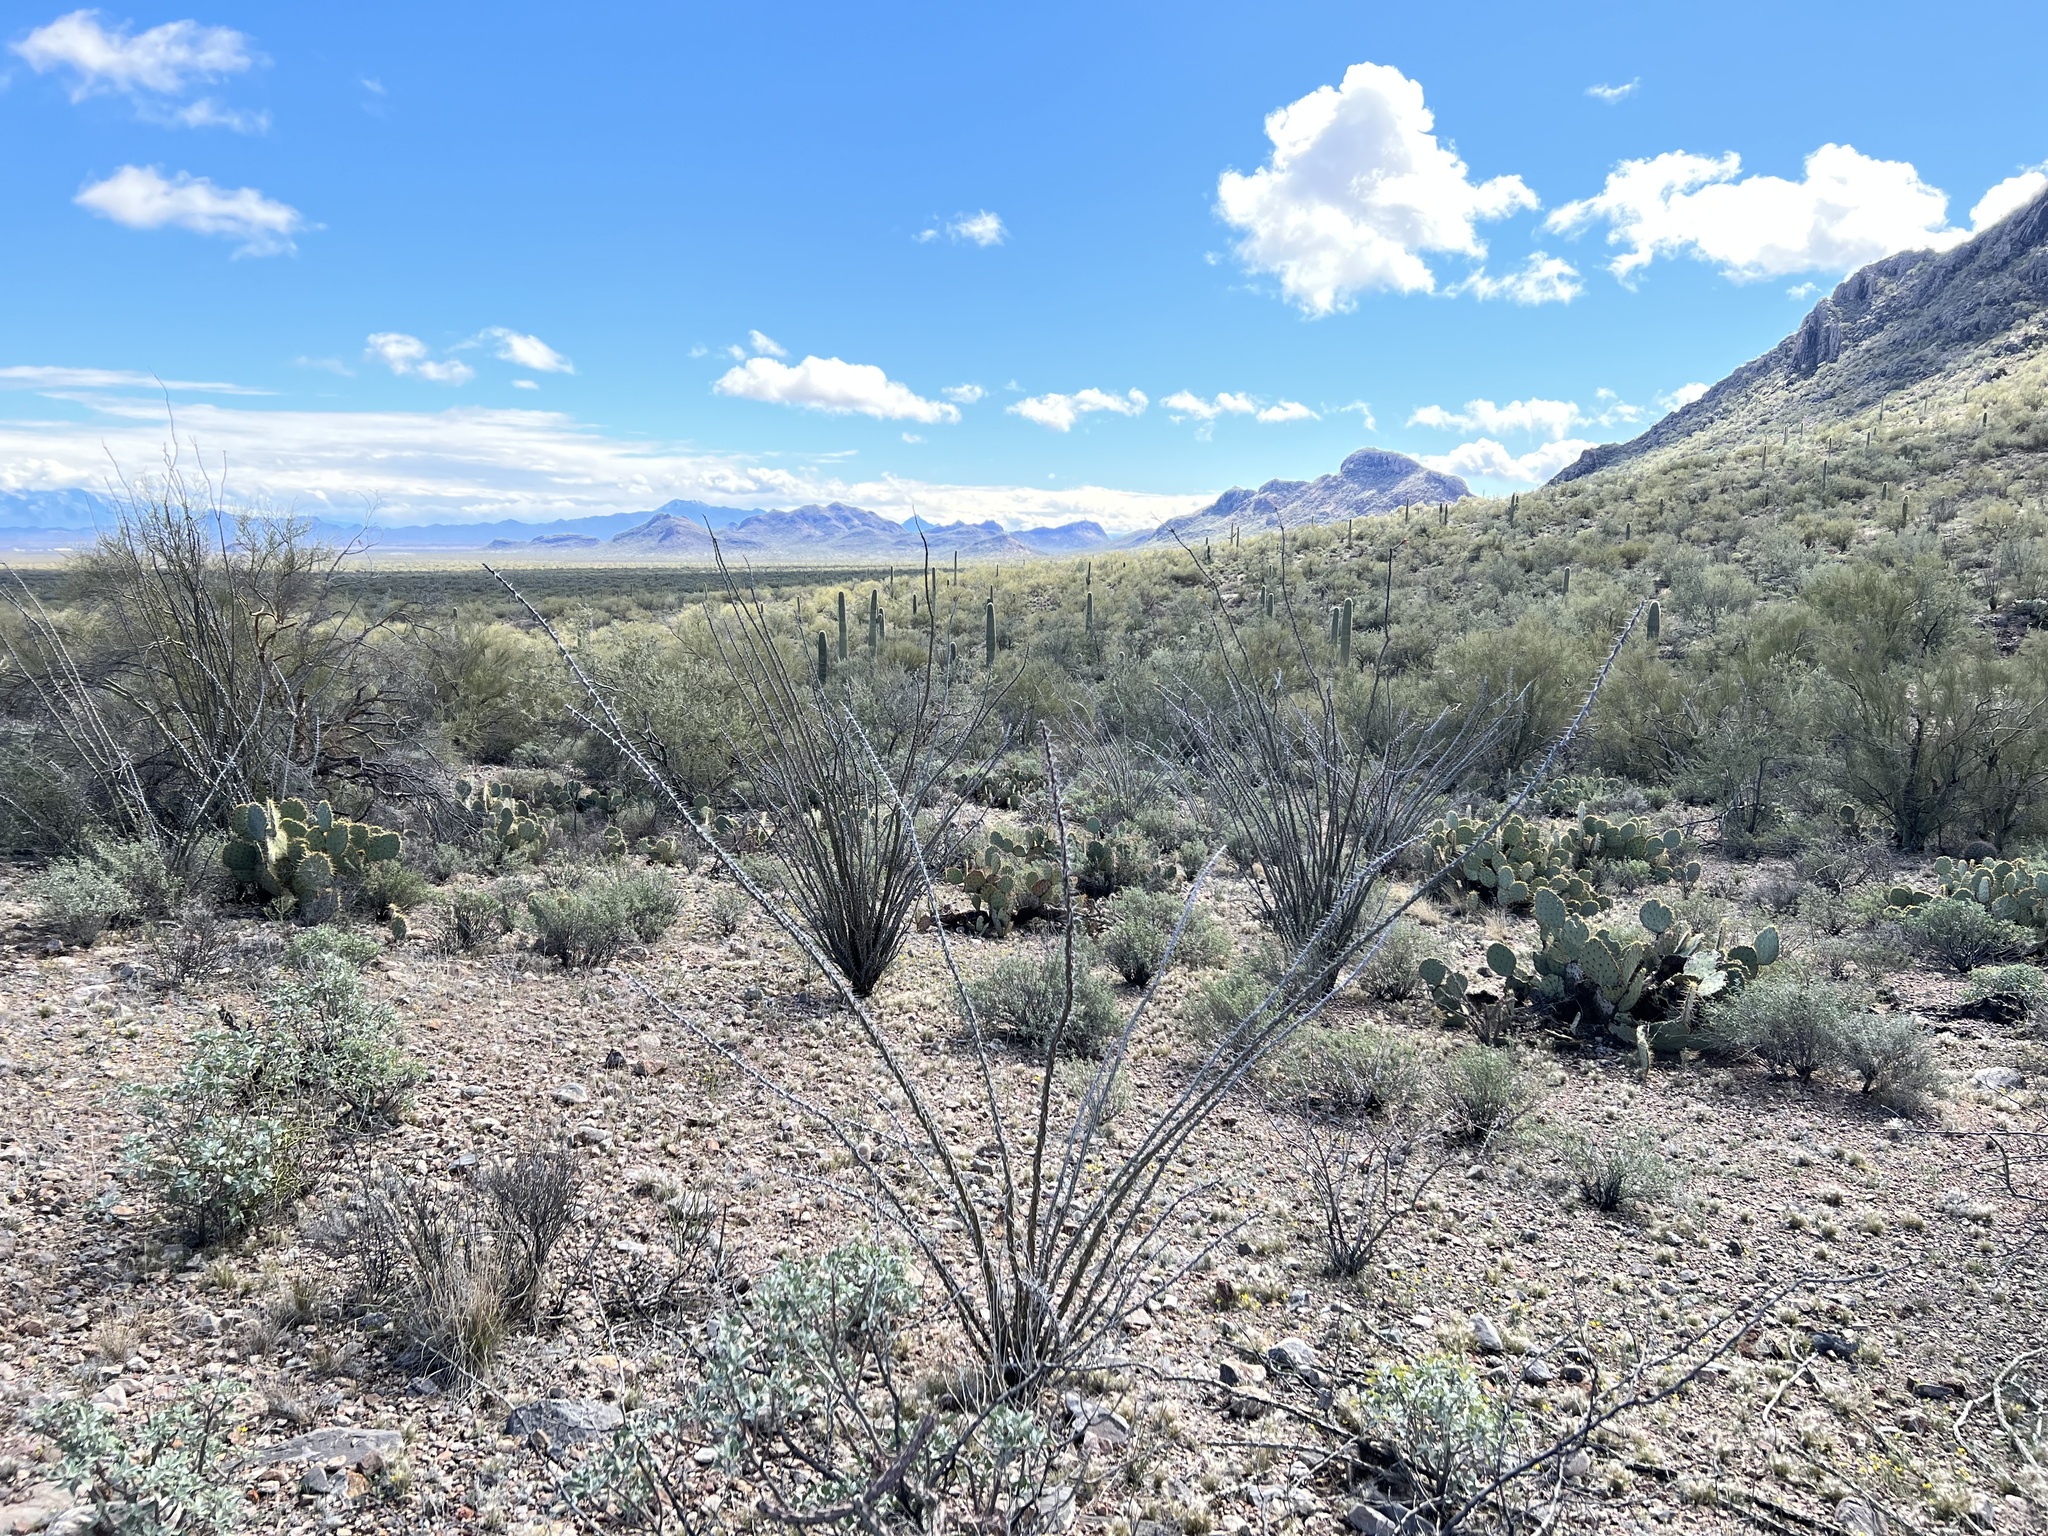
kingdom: Plantae
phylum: Tracheophyta
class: Magnoliopsida
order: Ericales
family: Fouquieriaceae
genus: Fouquieria
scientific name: Fouquieria splendens
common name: Vine-cactus
